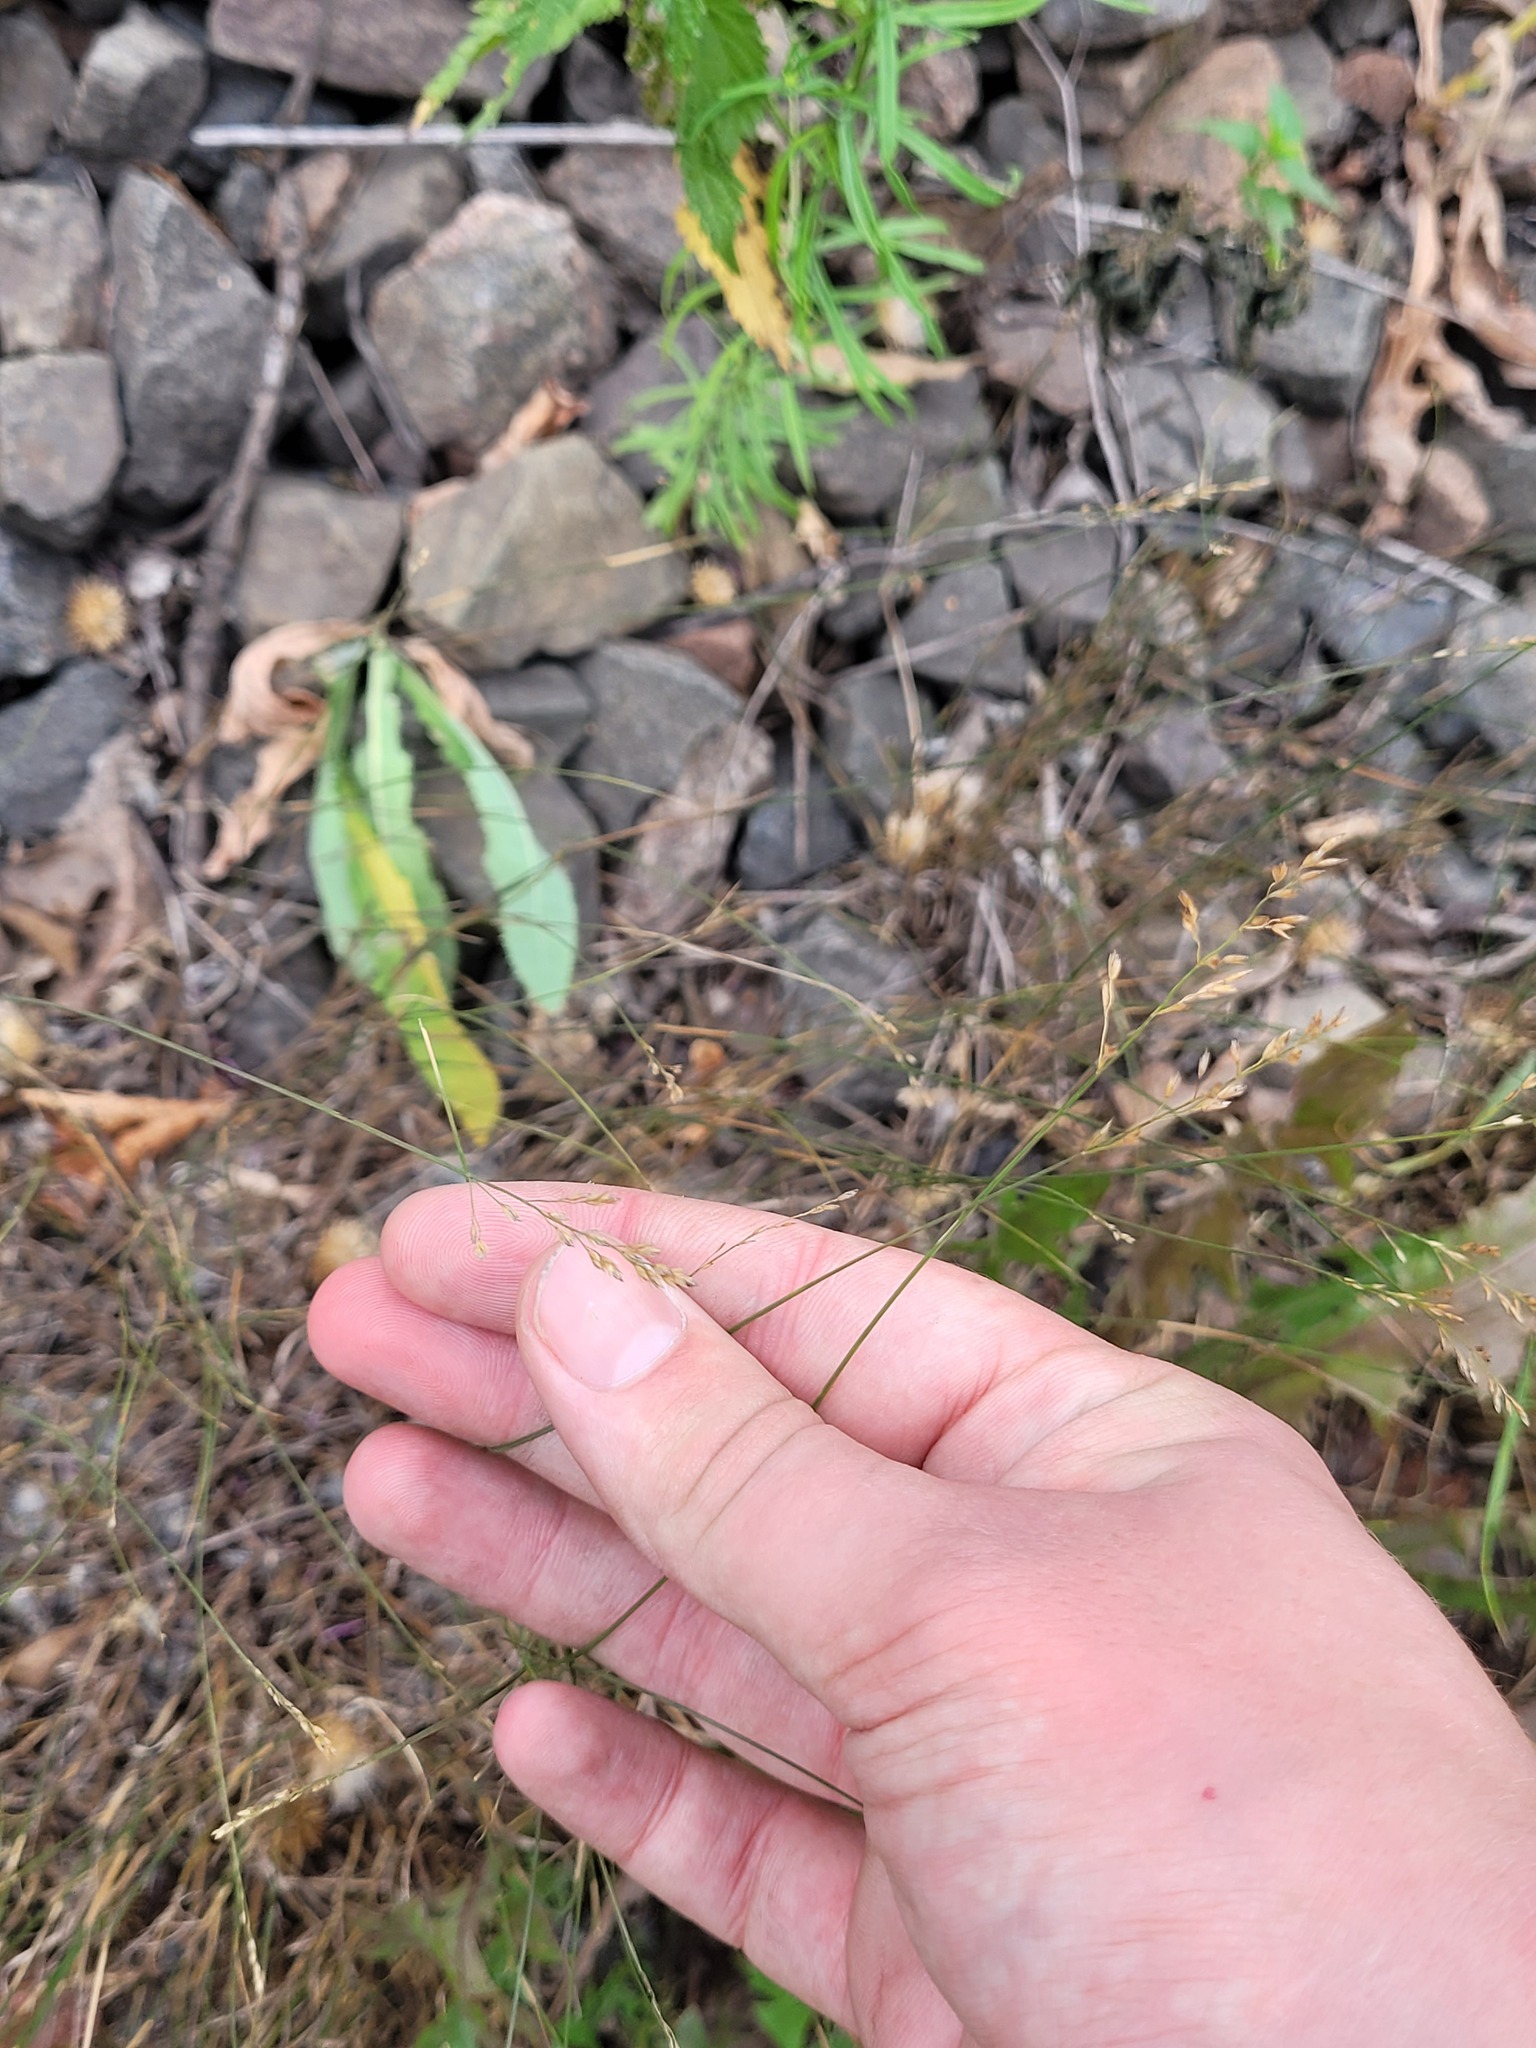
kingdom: Plantae
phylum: Tracheophyta
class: Liliopsida
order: Poales
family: Poaceae
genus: Poa
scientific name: Poa compressa
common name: Canada bluegrass
